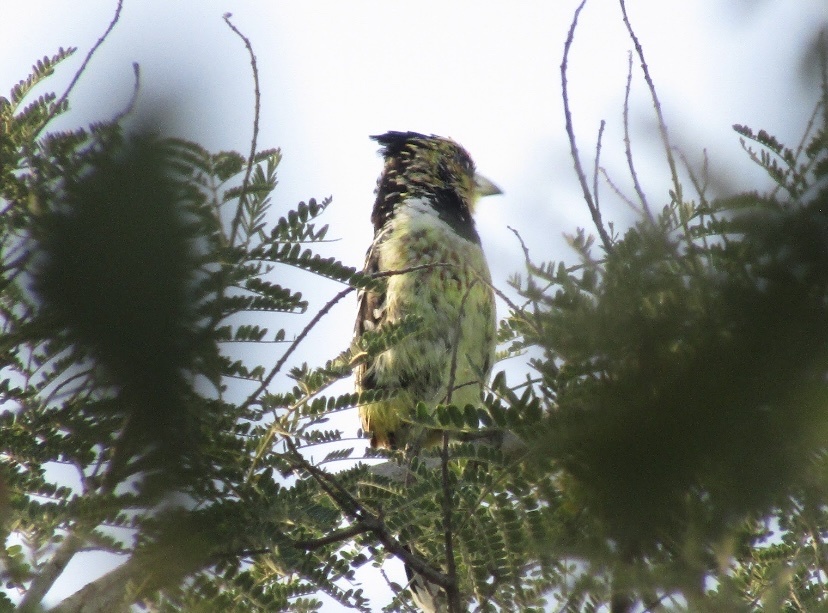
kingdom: Animalia
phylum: Chordata
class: Aves
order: Piciformes
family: Lybiidae
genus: Trachyphonus
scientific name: Trachyphonus vaillantii
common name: Crested barbet
